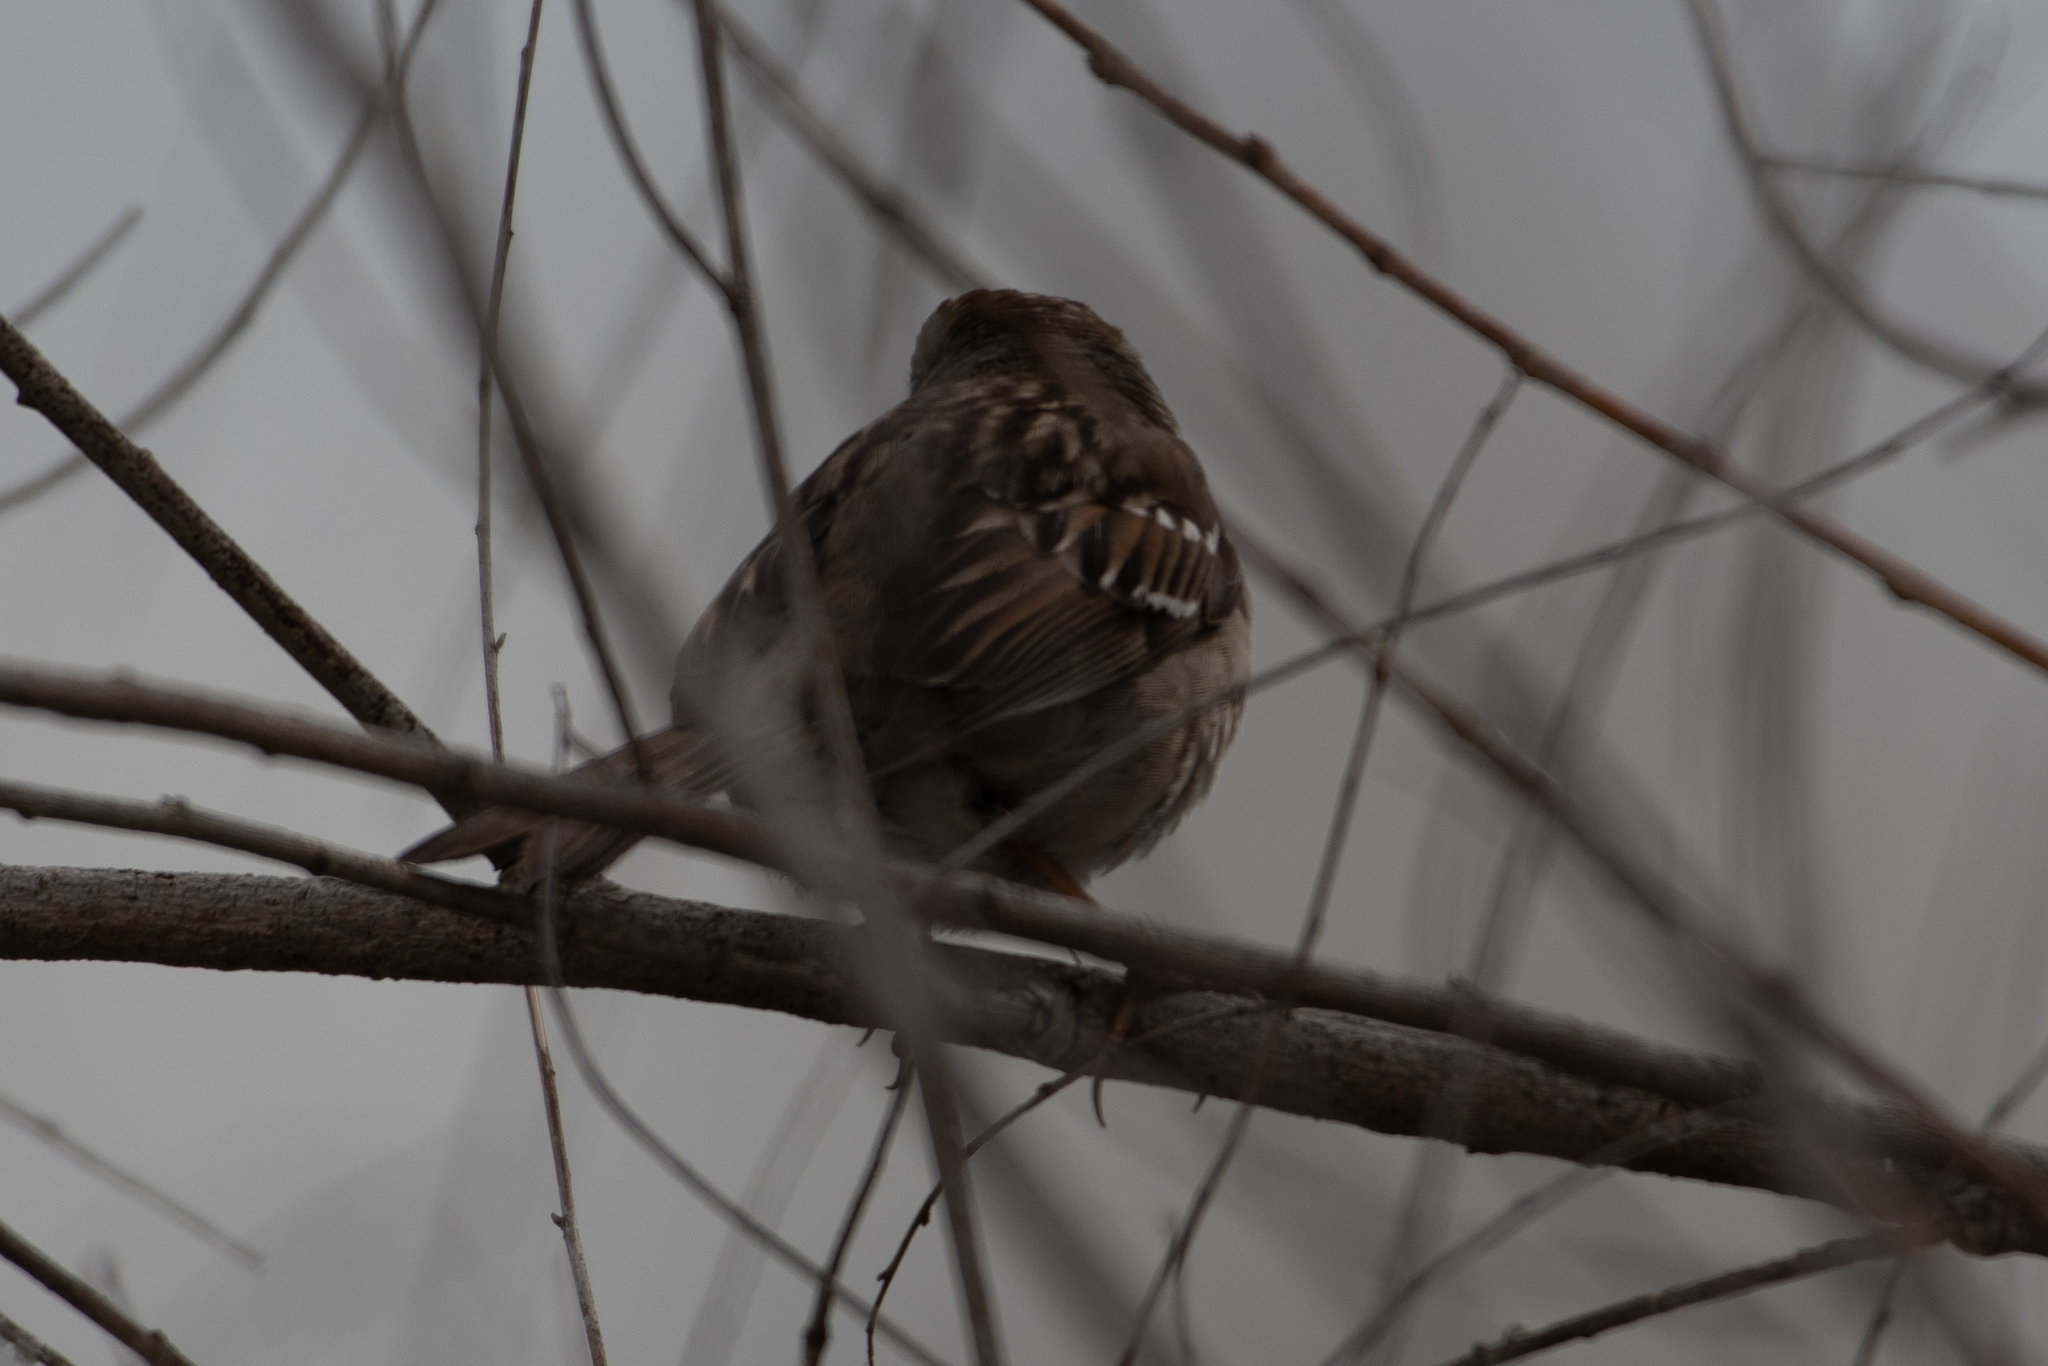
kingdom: Animalia
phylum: Chordata
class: Aves
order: Passeriformes
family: Passerellidae
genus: Zonotrichia
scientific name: Zonotrichia
